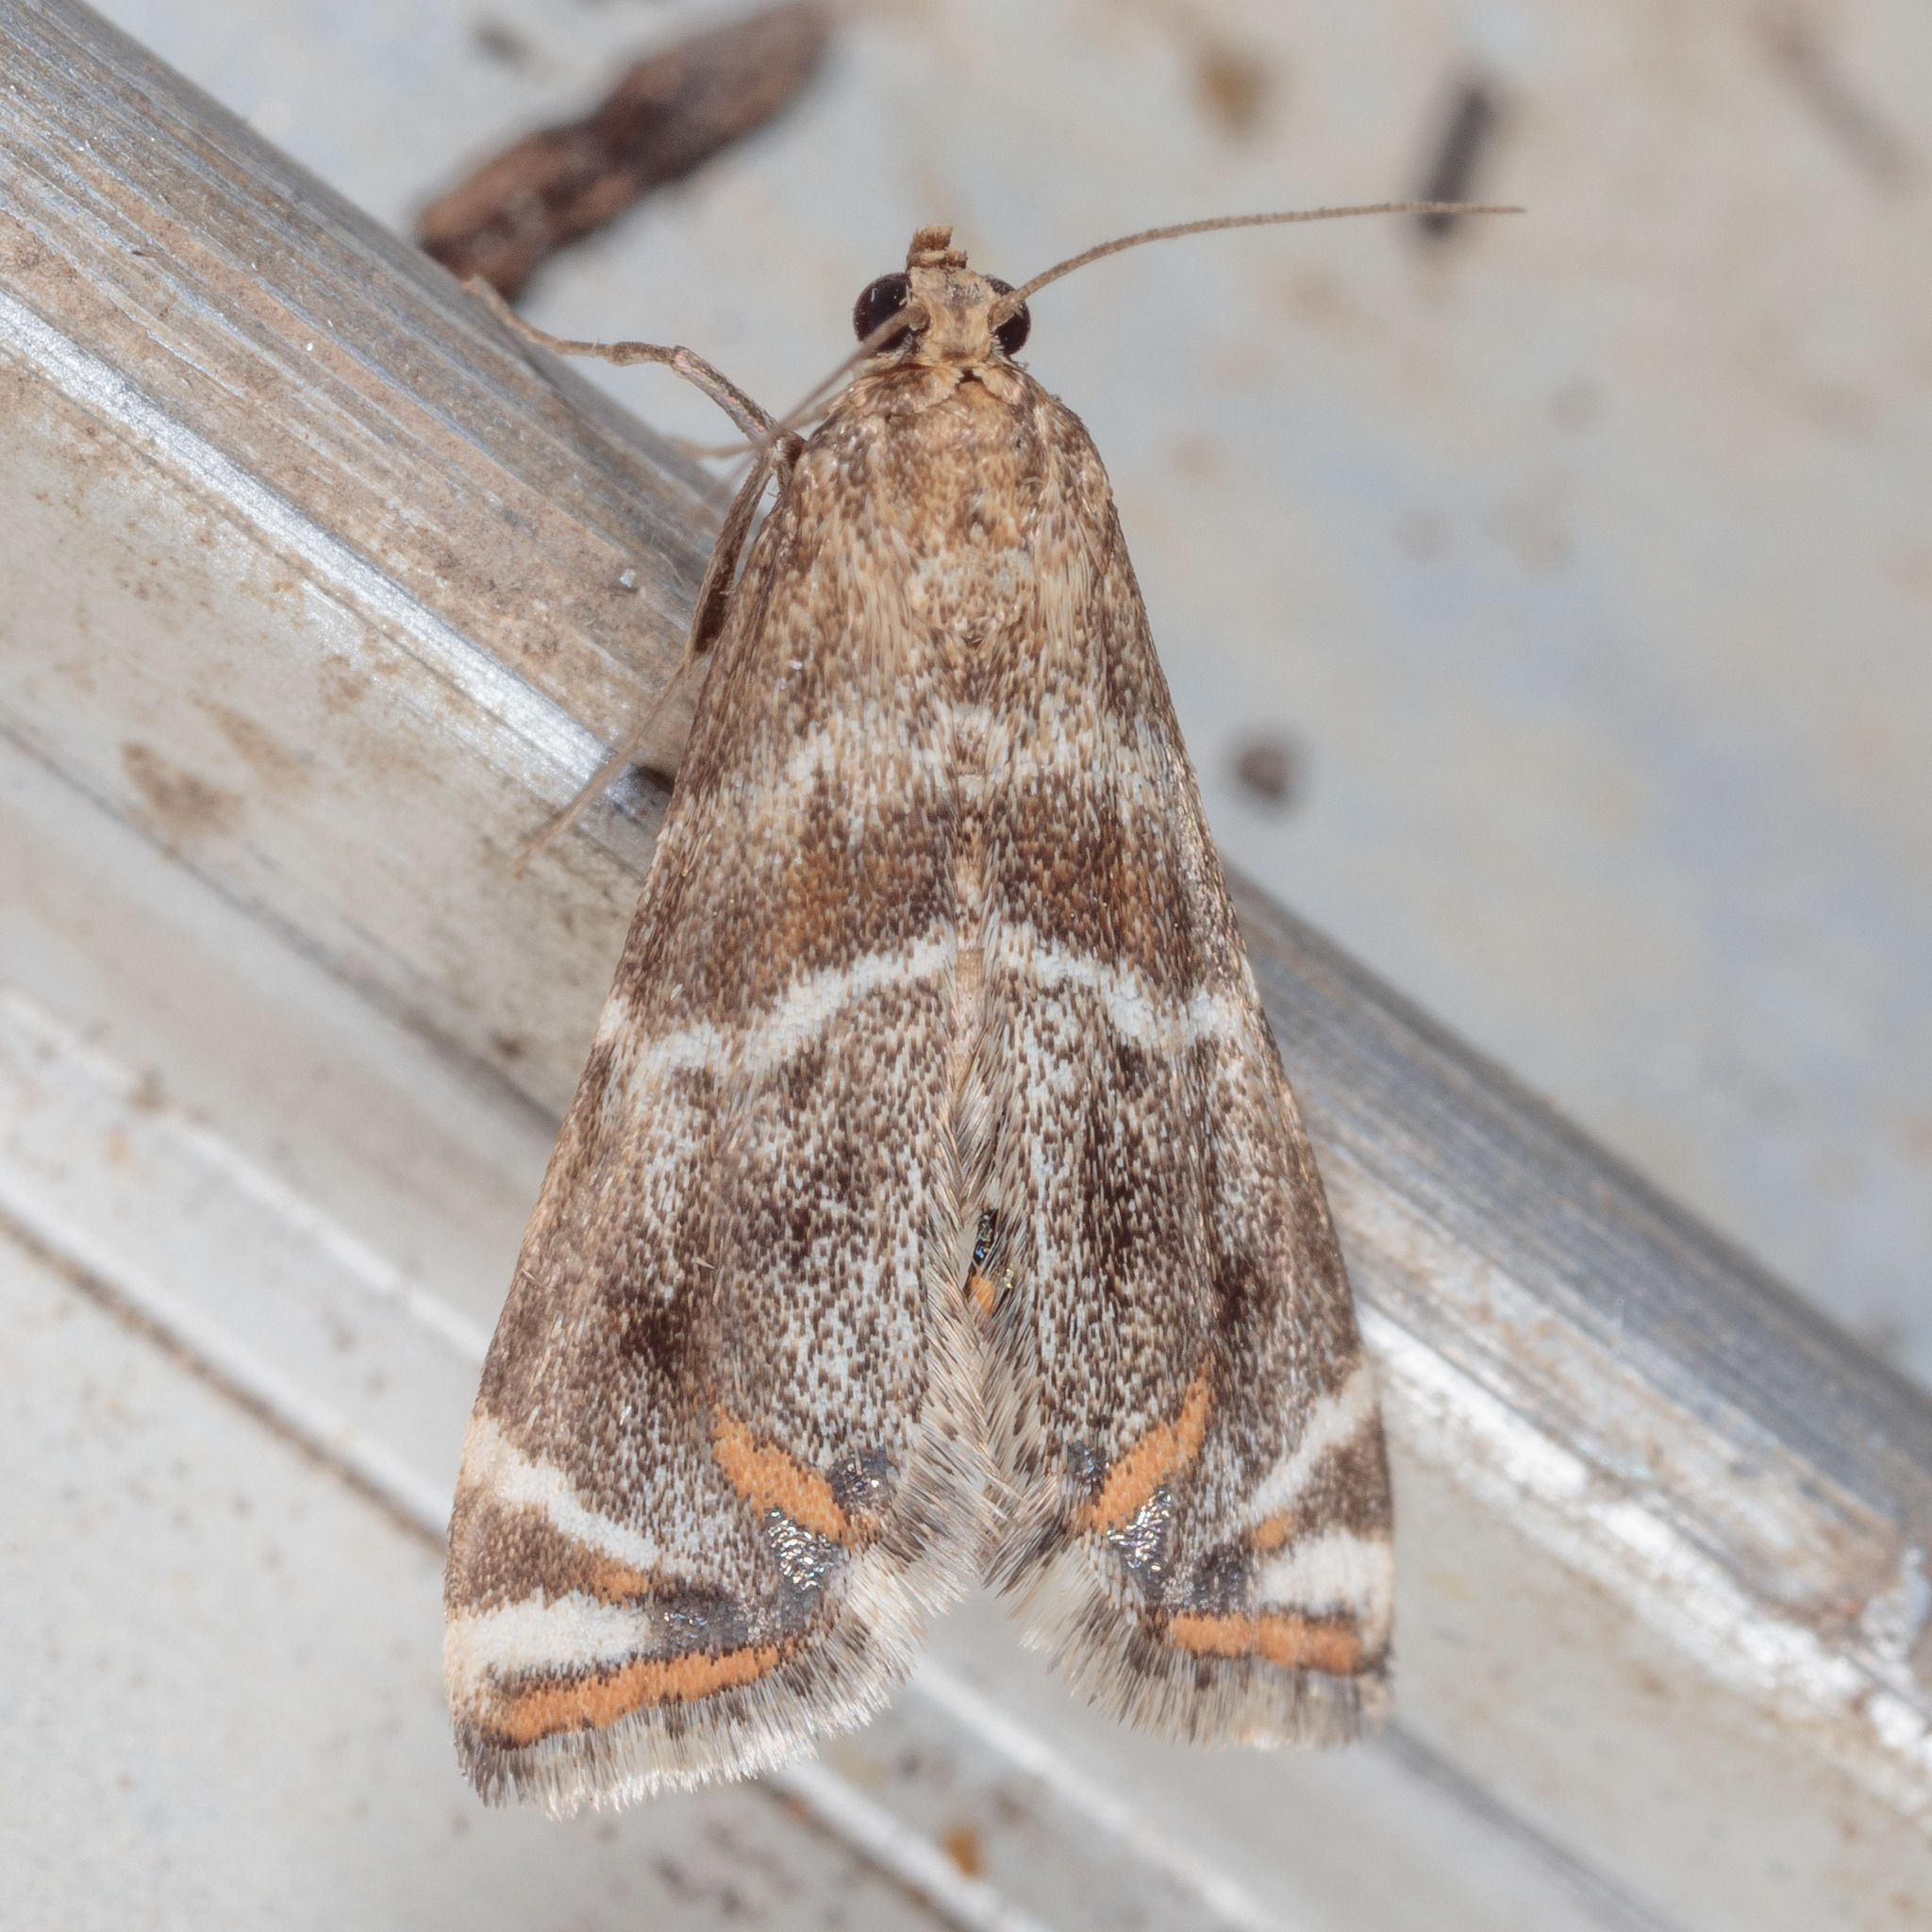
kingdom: Animalia
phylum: Arthropoda
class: Insecta
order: Lepidoptera
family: Crambidae
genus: Petrophila
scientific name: Petrophila jaliscalis
